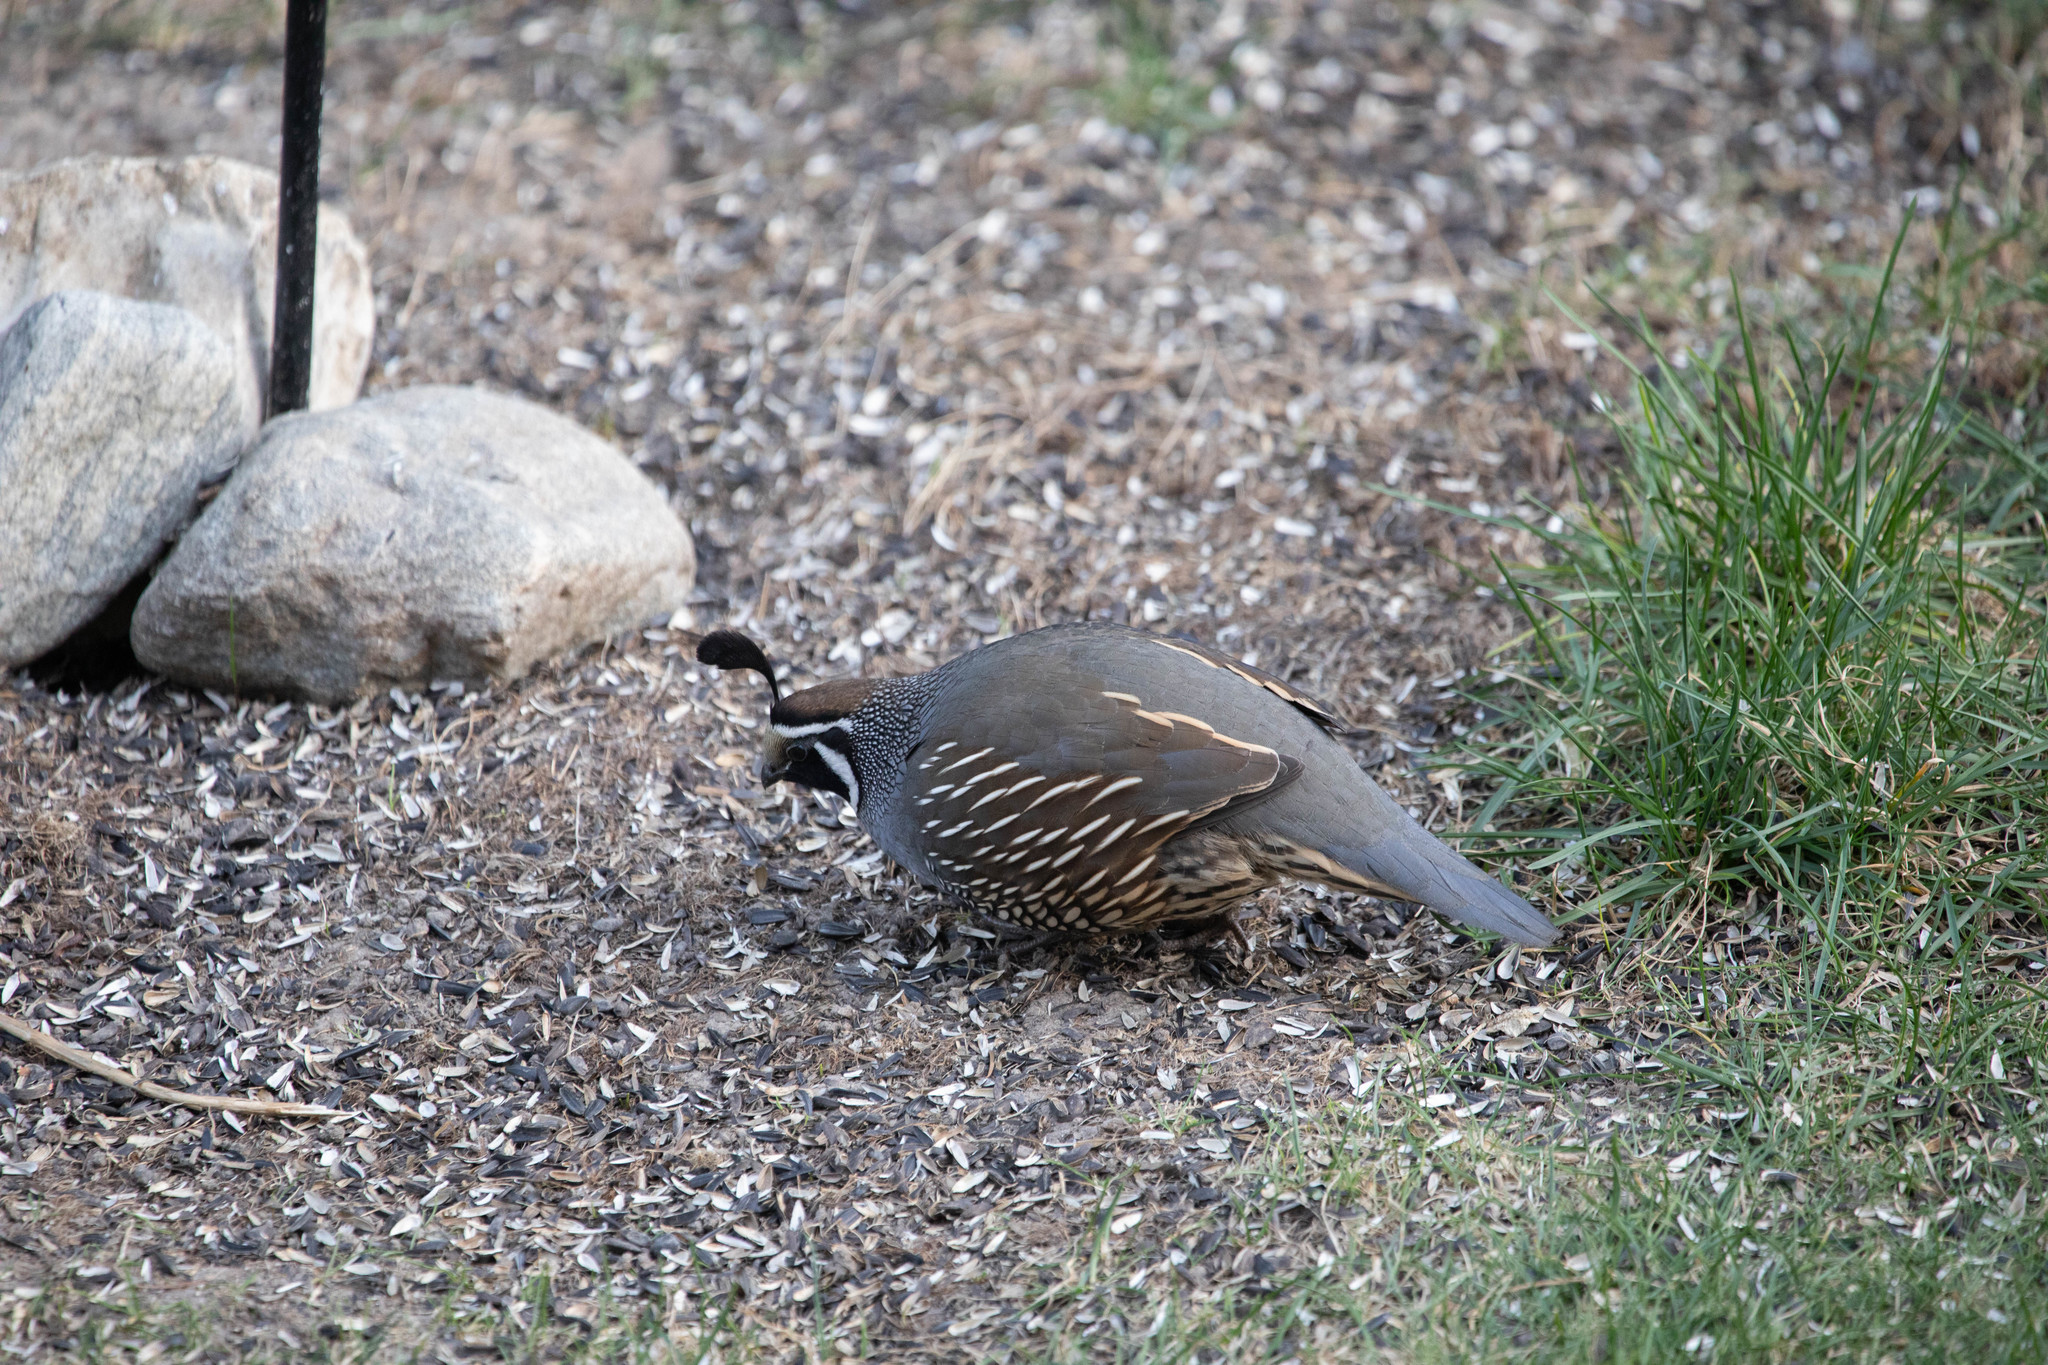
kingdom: Animalia
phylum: Chordata
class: Aves
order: Galliformes
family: Odontophoridae
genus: Callipepla
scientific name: Callipepla californica
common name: California quail
